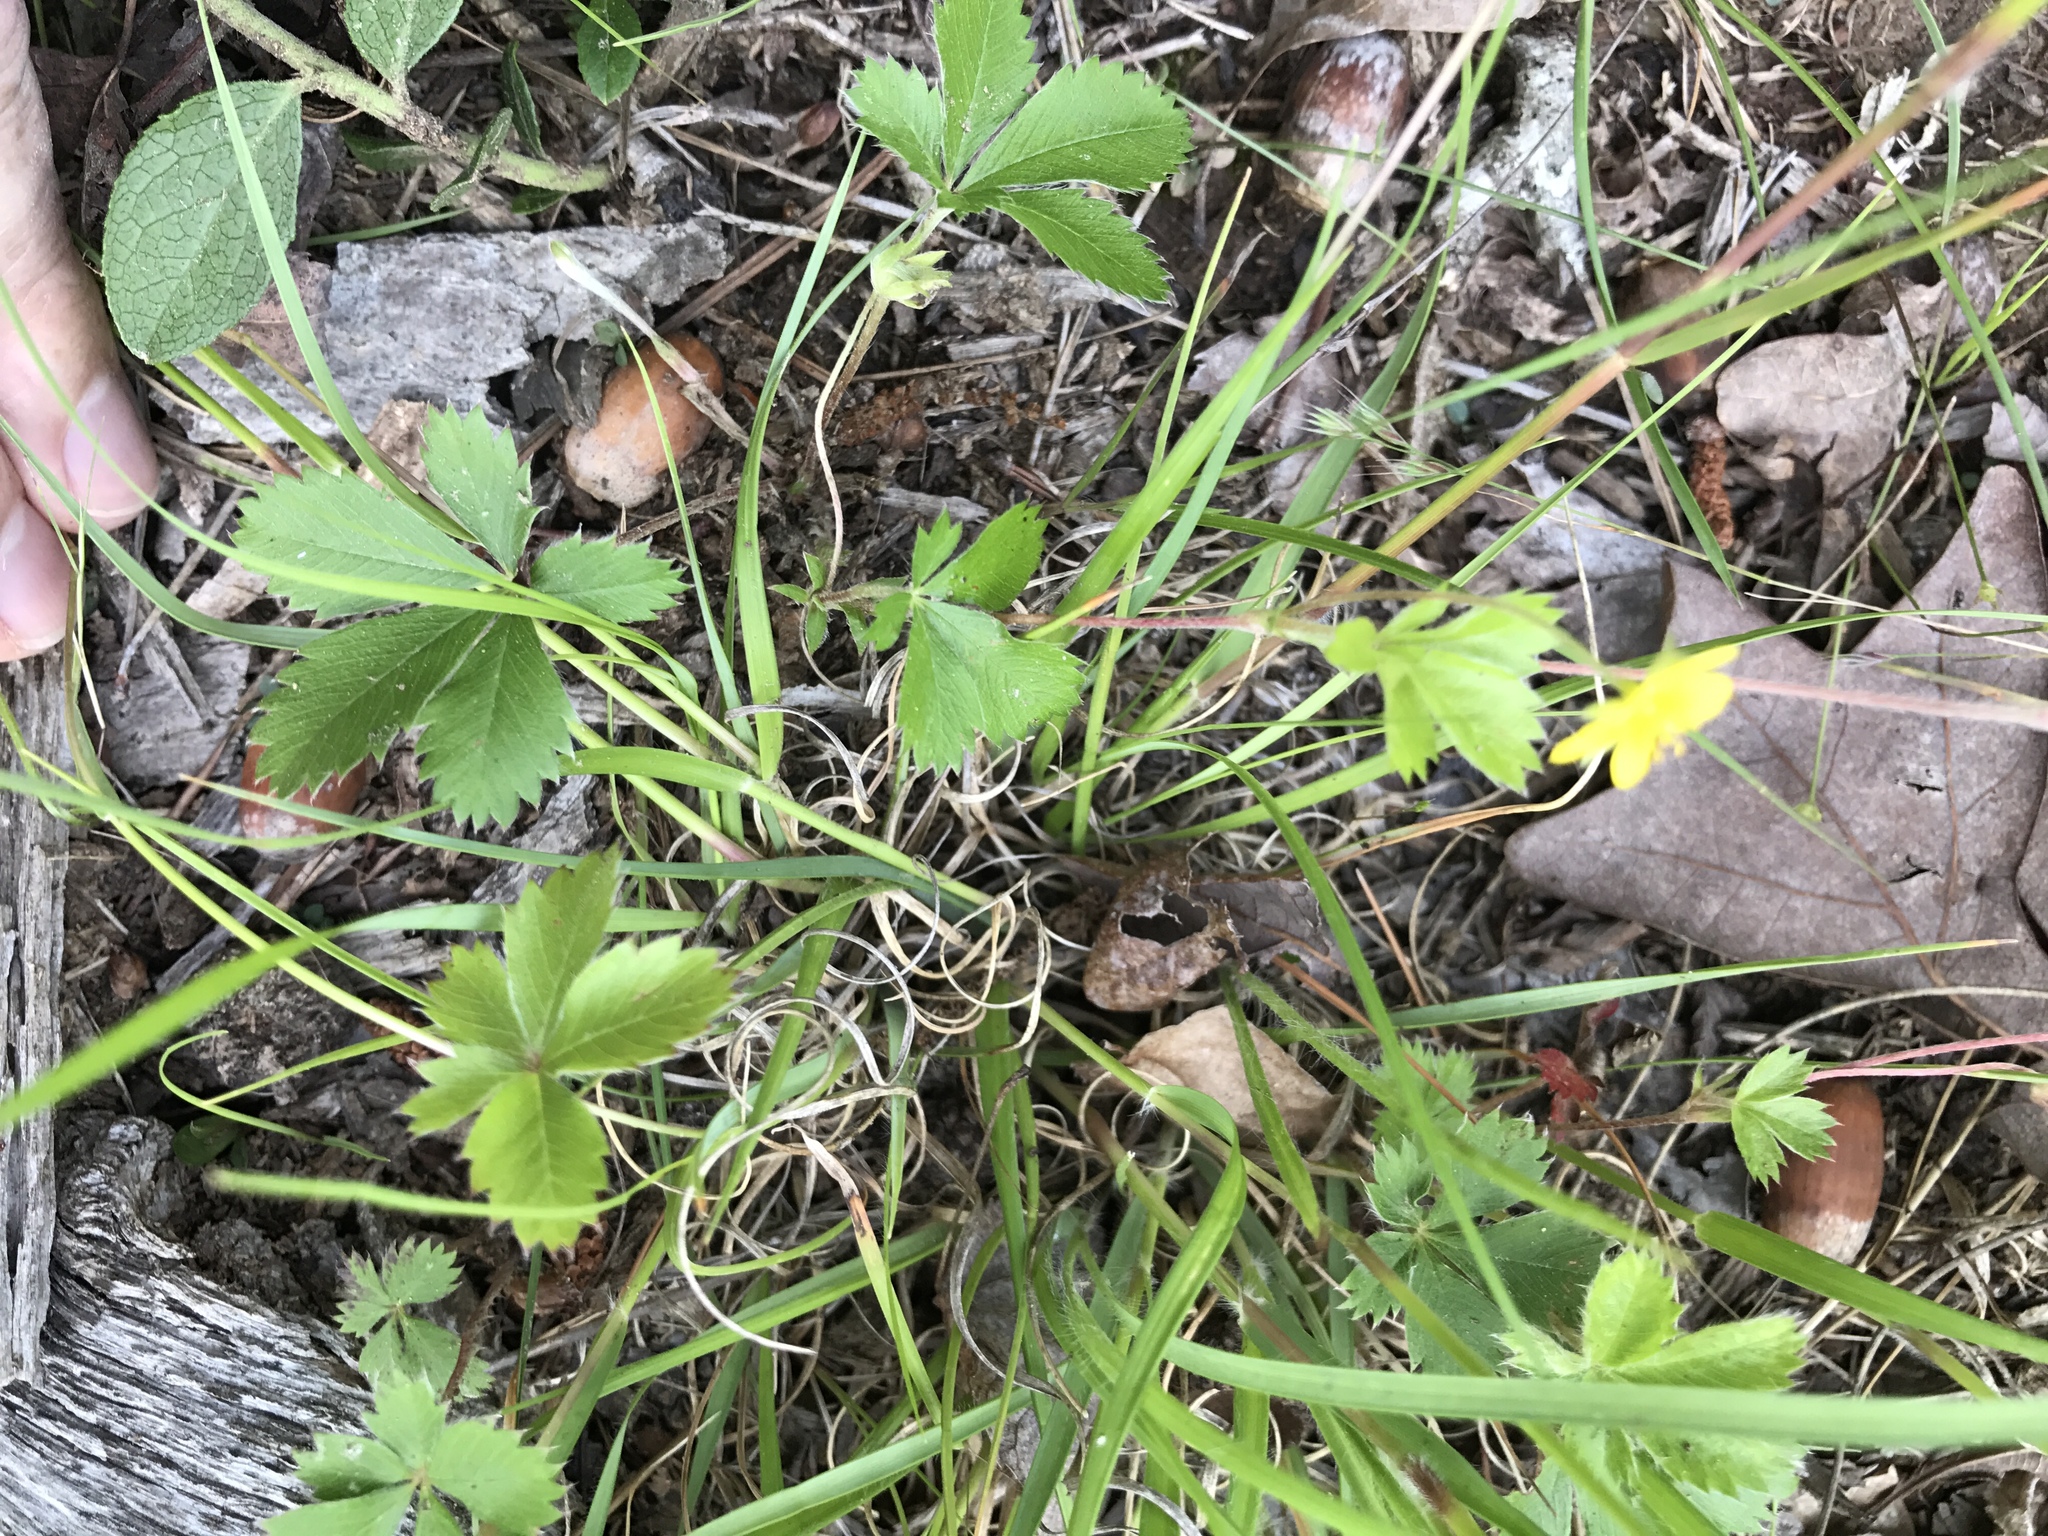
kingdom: Plantae
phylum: Tracheophyta
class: Magnoliopsida
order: Rosales
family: Rosaceae
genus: Potentilla
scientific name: Potentilla canadensis
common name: Canada cinquefoil
